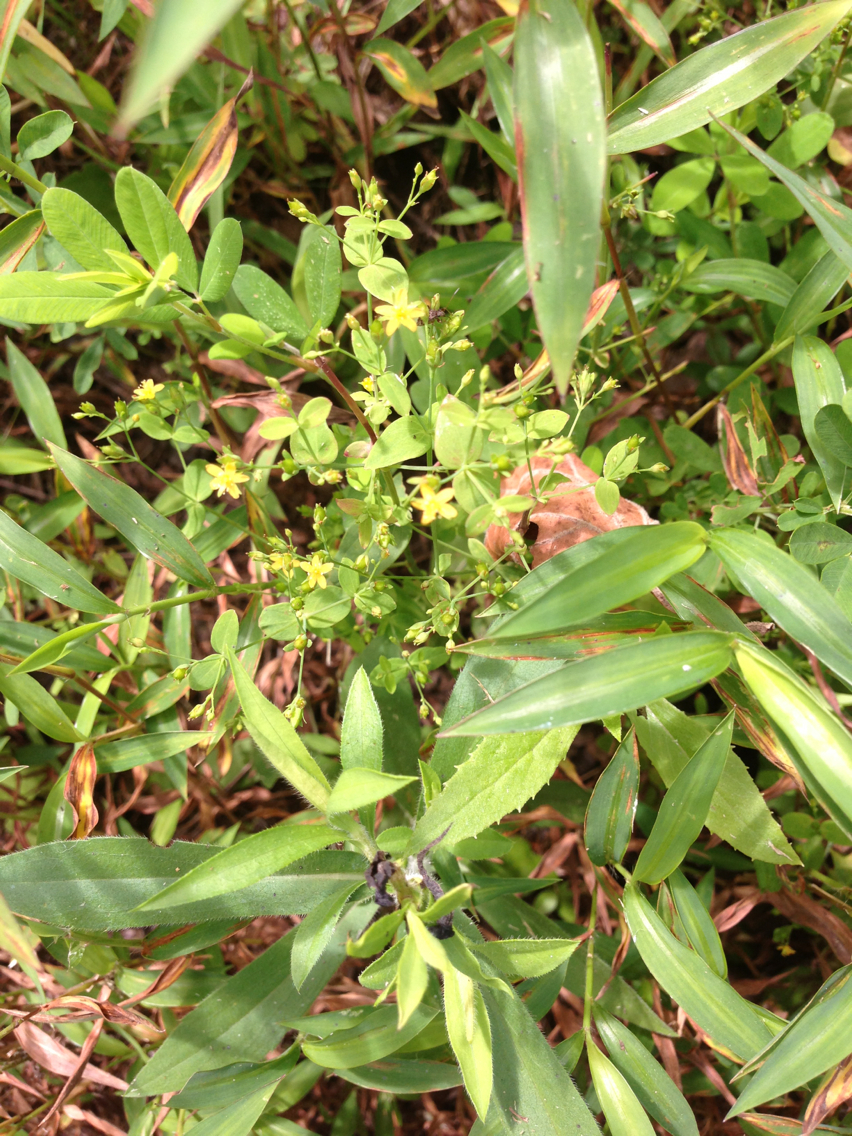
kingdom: Plantae
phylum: Tracheophyta
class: Magnoliopsida
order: Malpighiales
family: Hypericaceae
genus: Hypericum
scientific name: Hypericum mutilum
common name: Dwarf st. john's-wort
